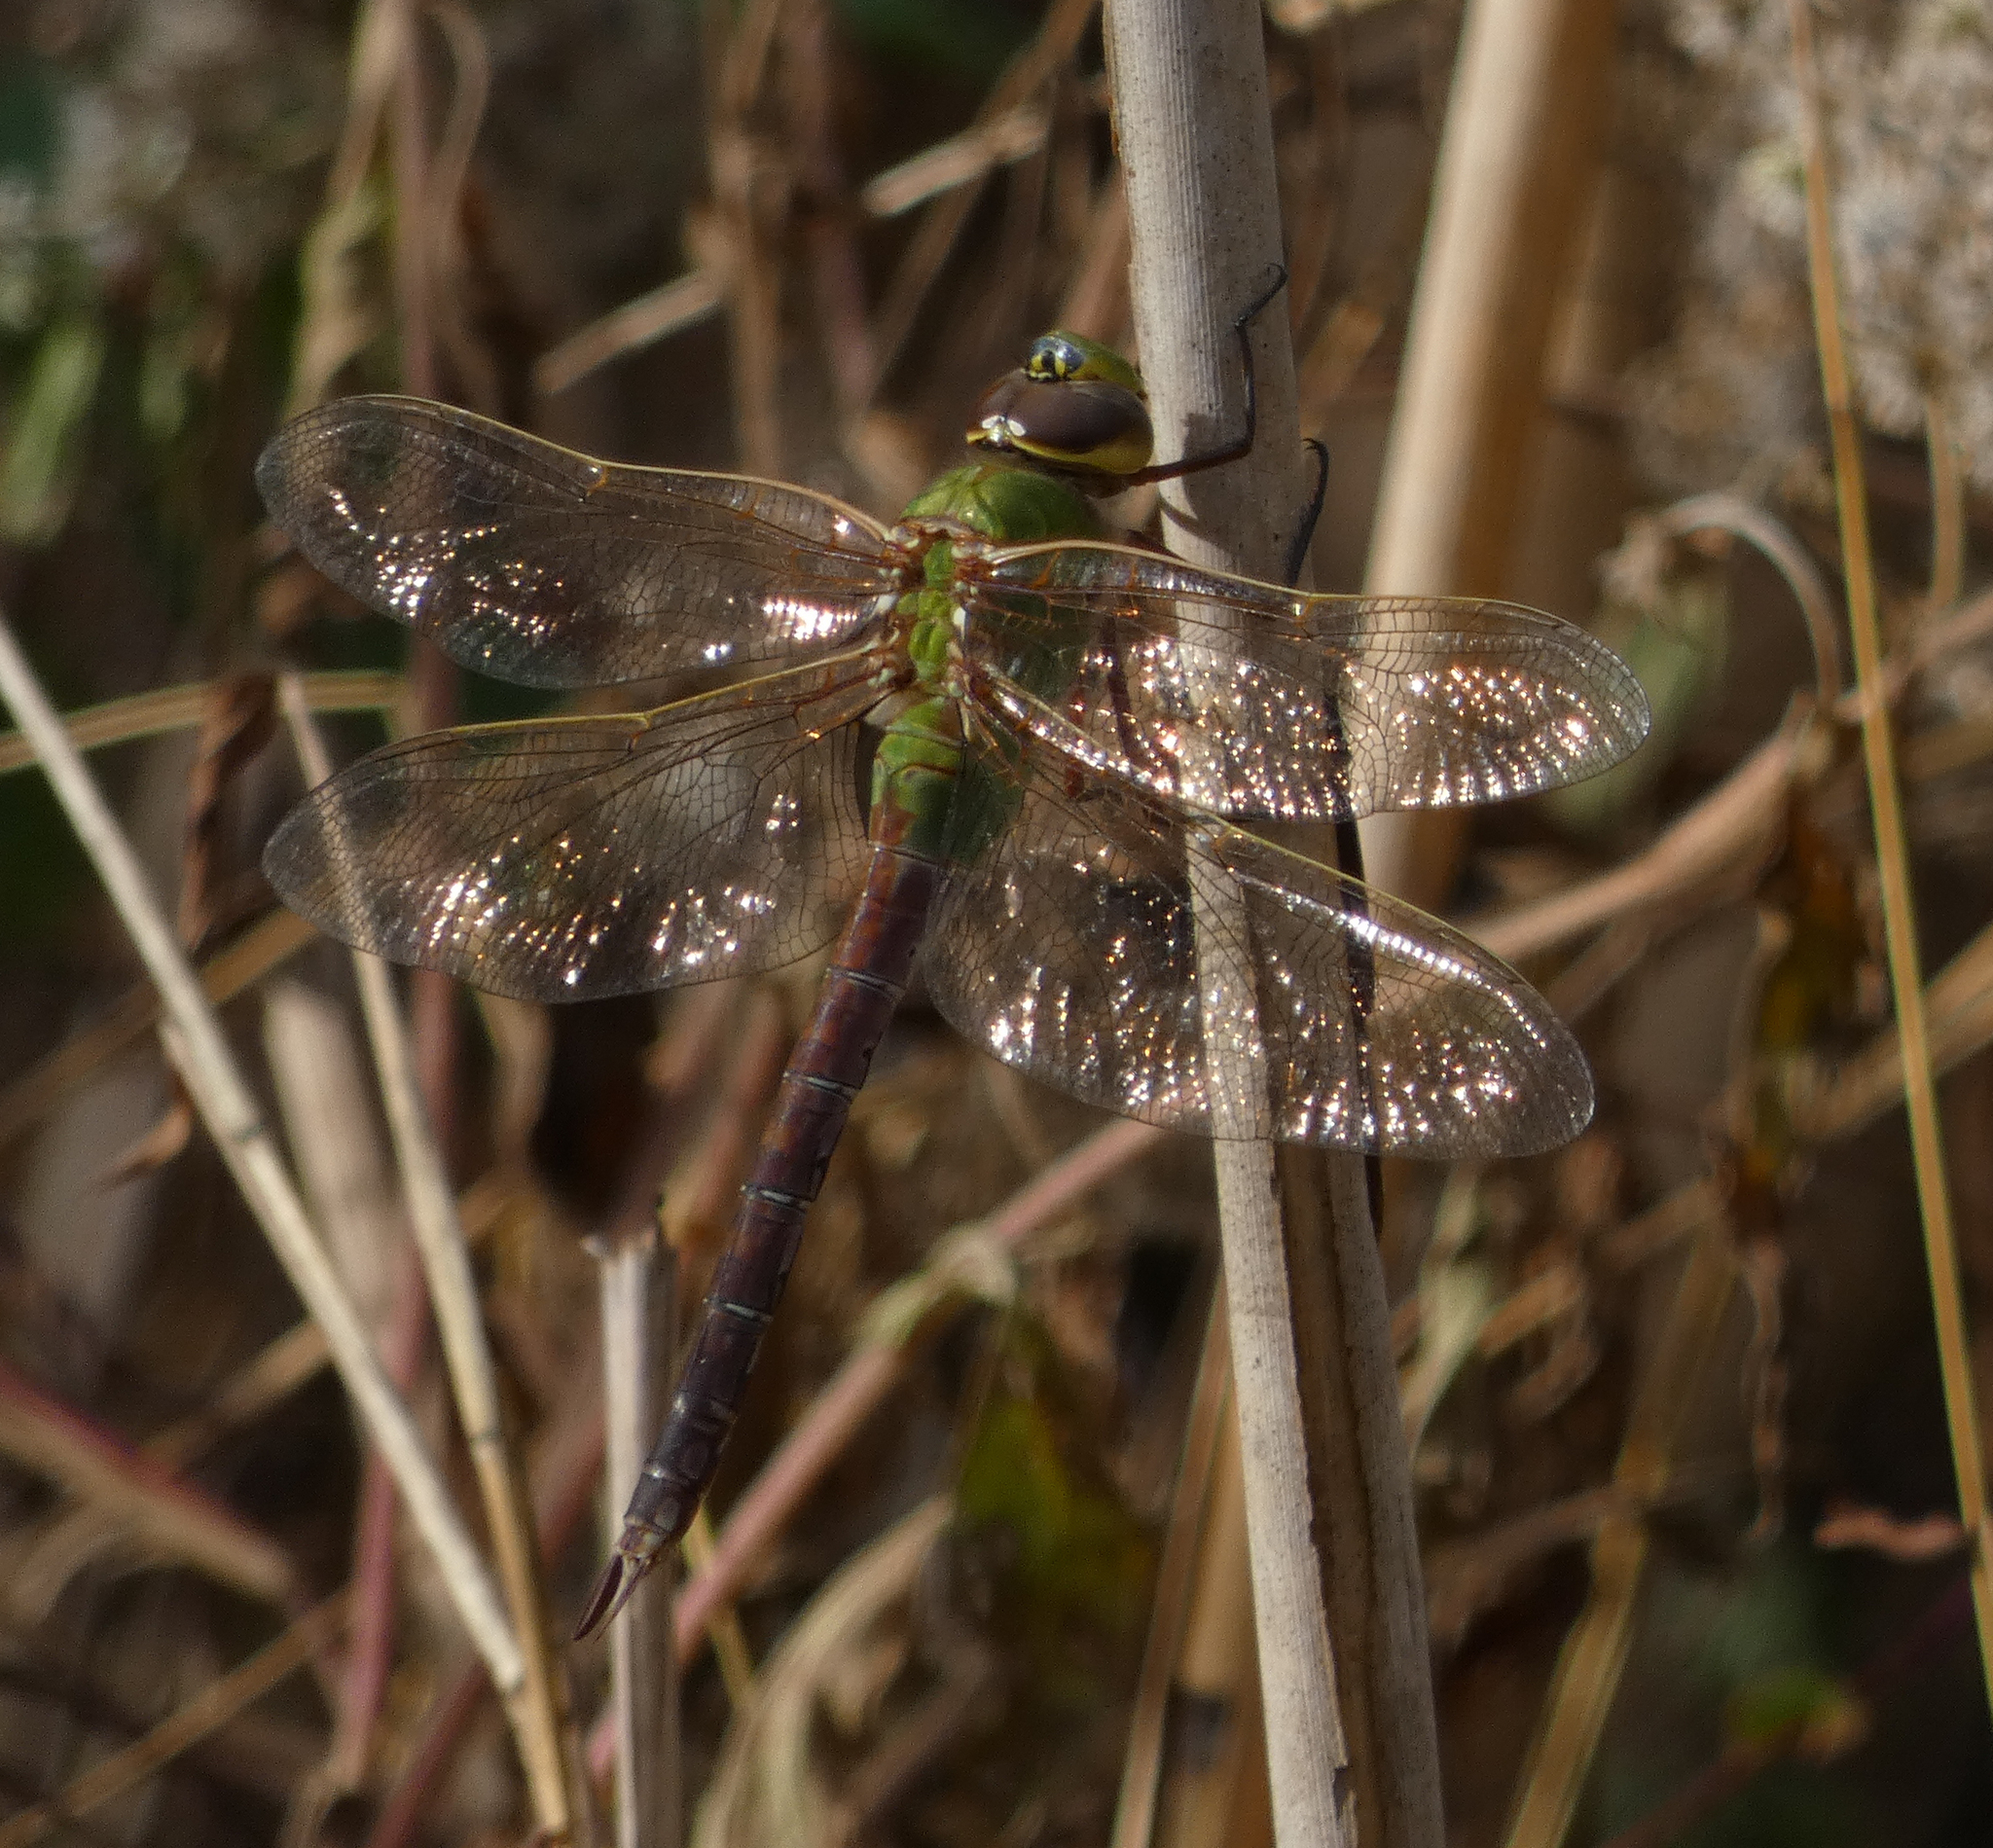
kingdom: Animalia
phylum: Arthropoda
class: Insecta
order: Odonata
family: Aeshnidae
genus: Anax
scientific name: Anax junius
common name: Common green darner
